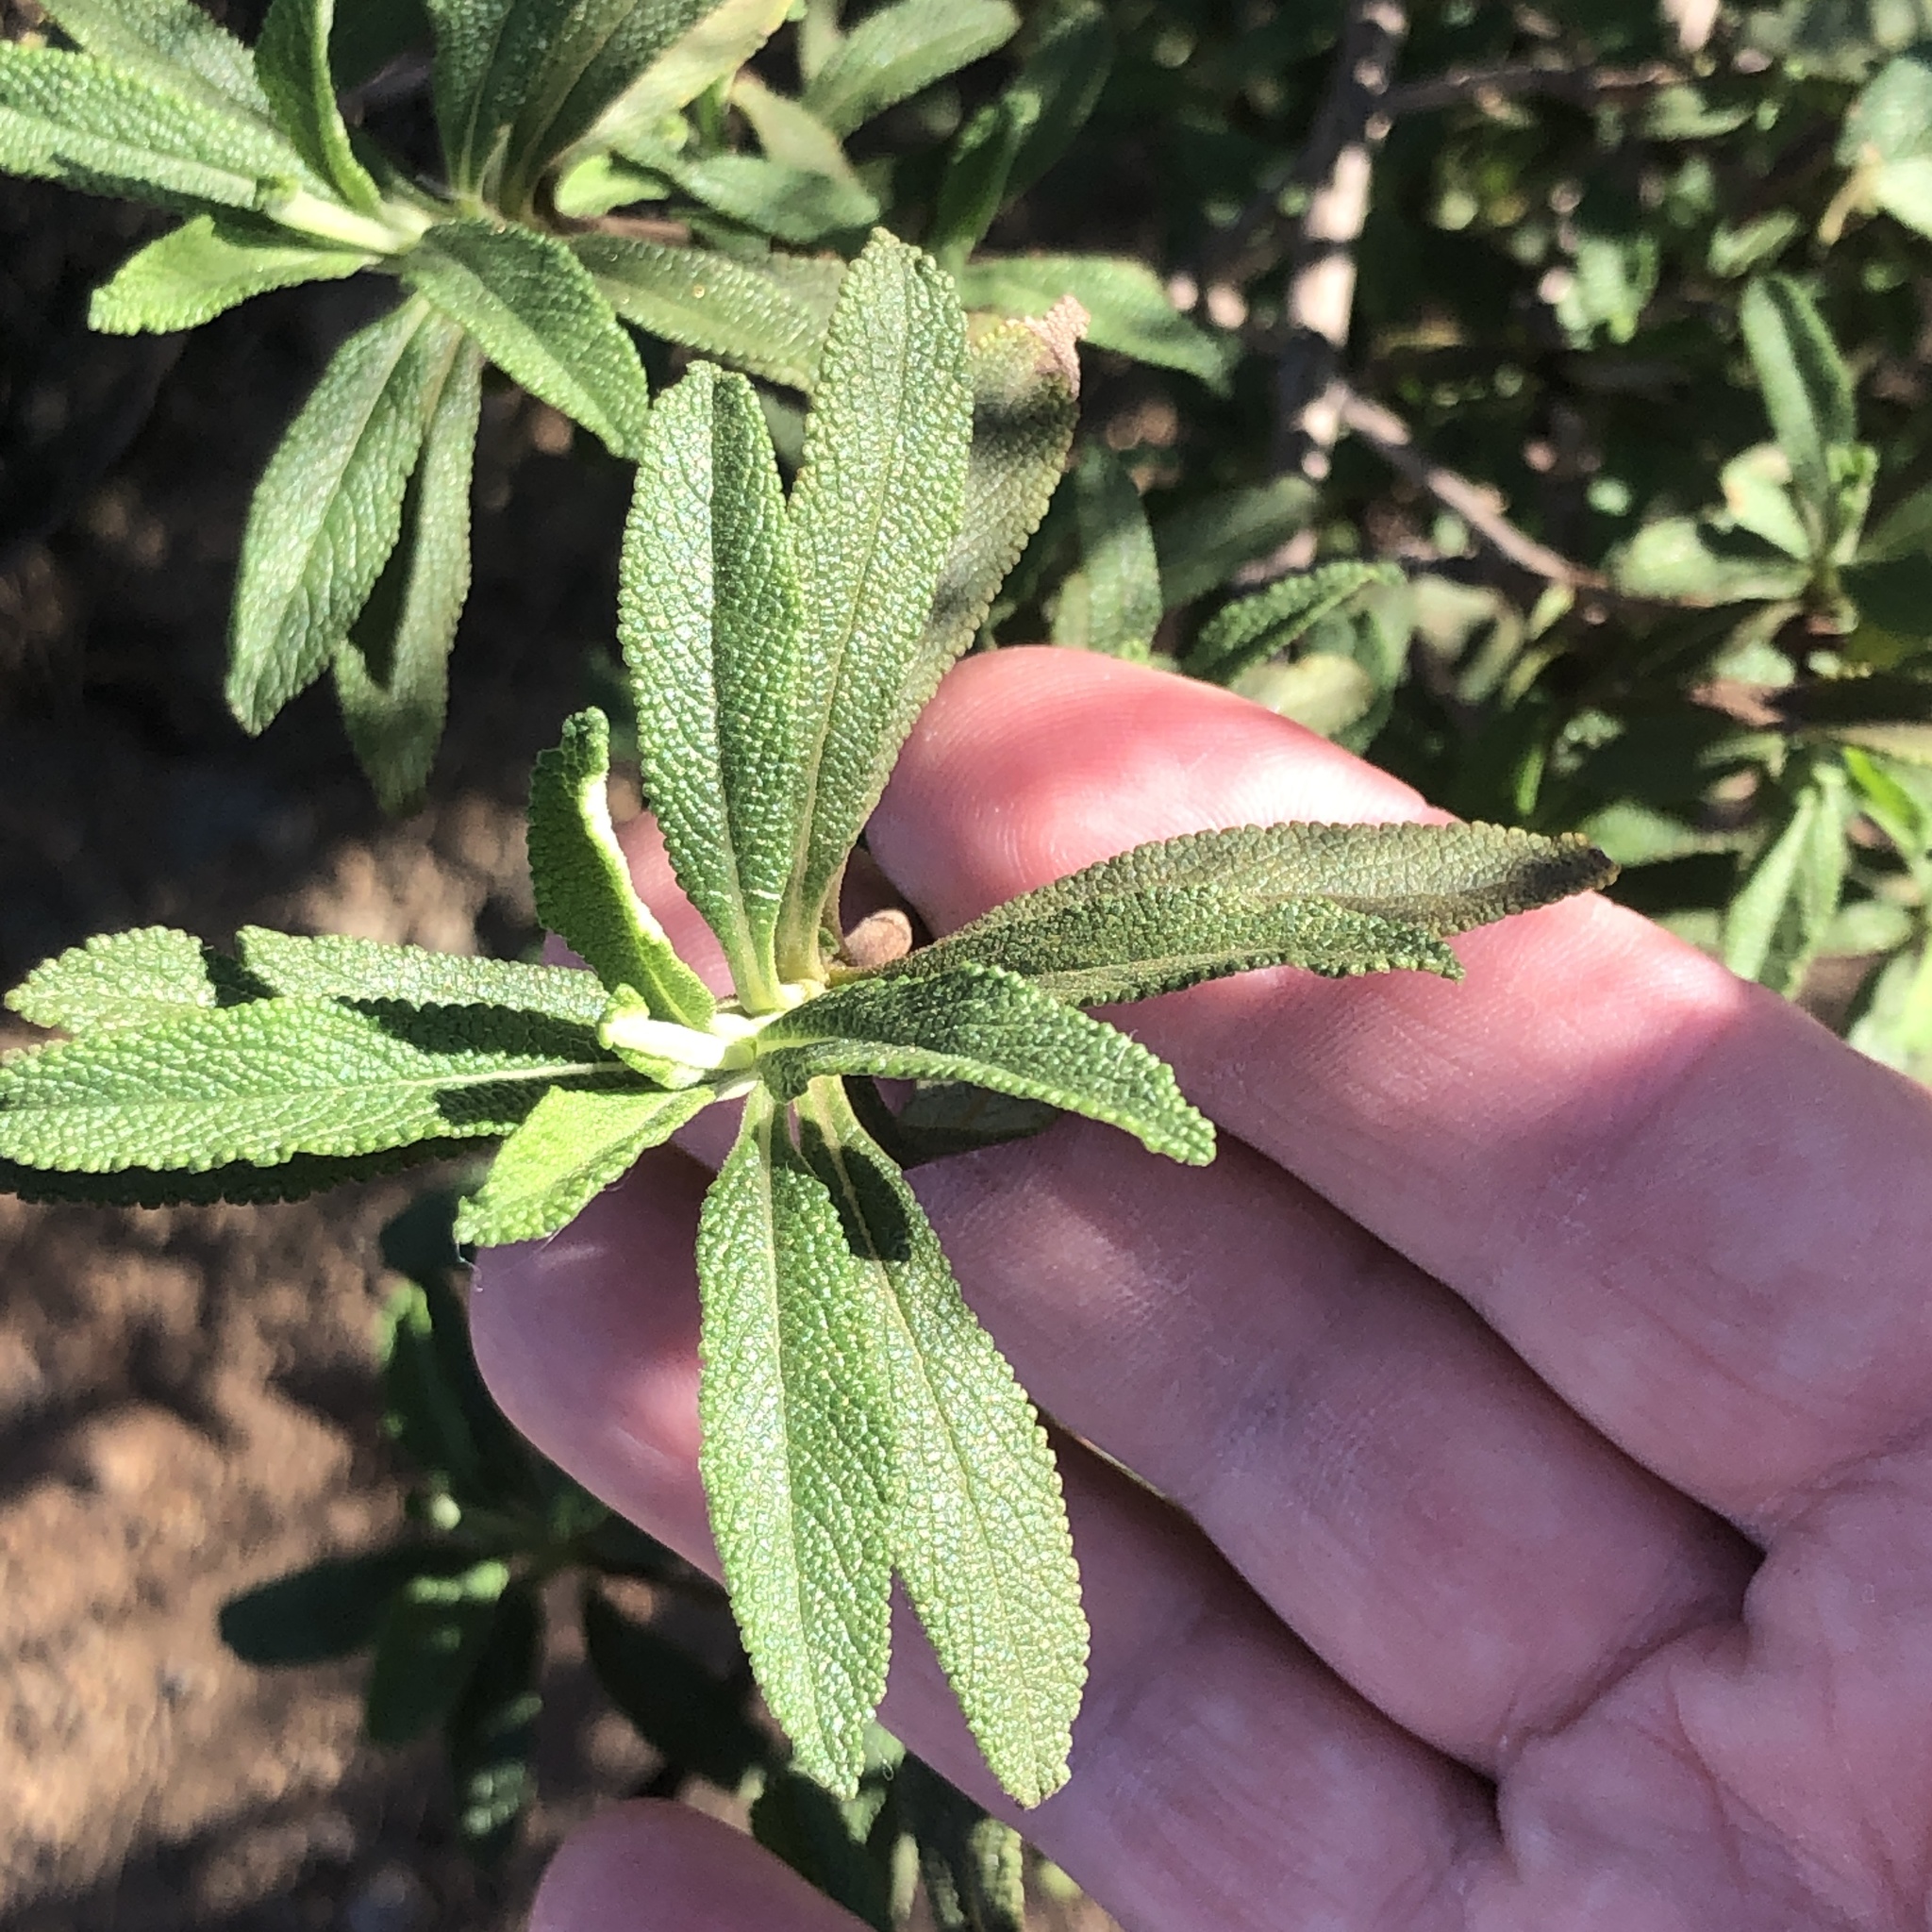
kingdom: Plantae
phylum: Tracheophyta
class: Magnoliopsida
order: Lamiales
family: Lamiaceae
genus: Salvia
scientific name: Salvia mellifera
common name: Black sage
